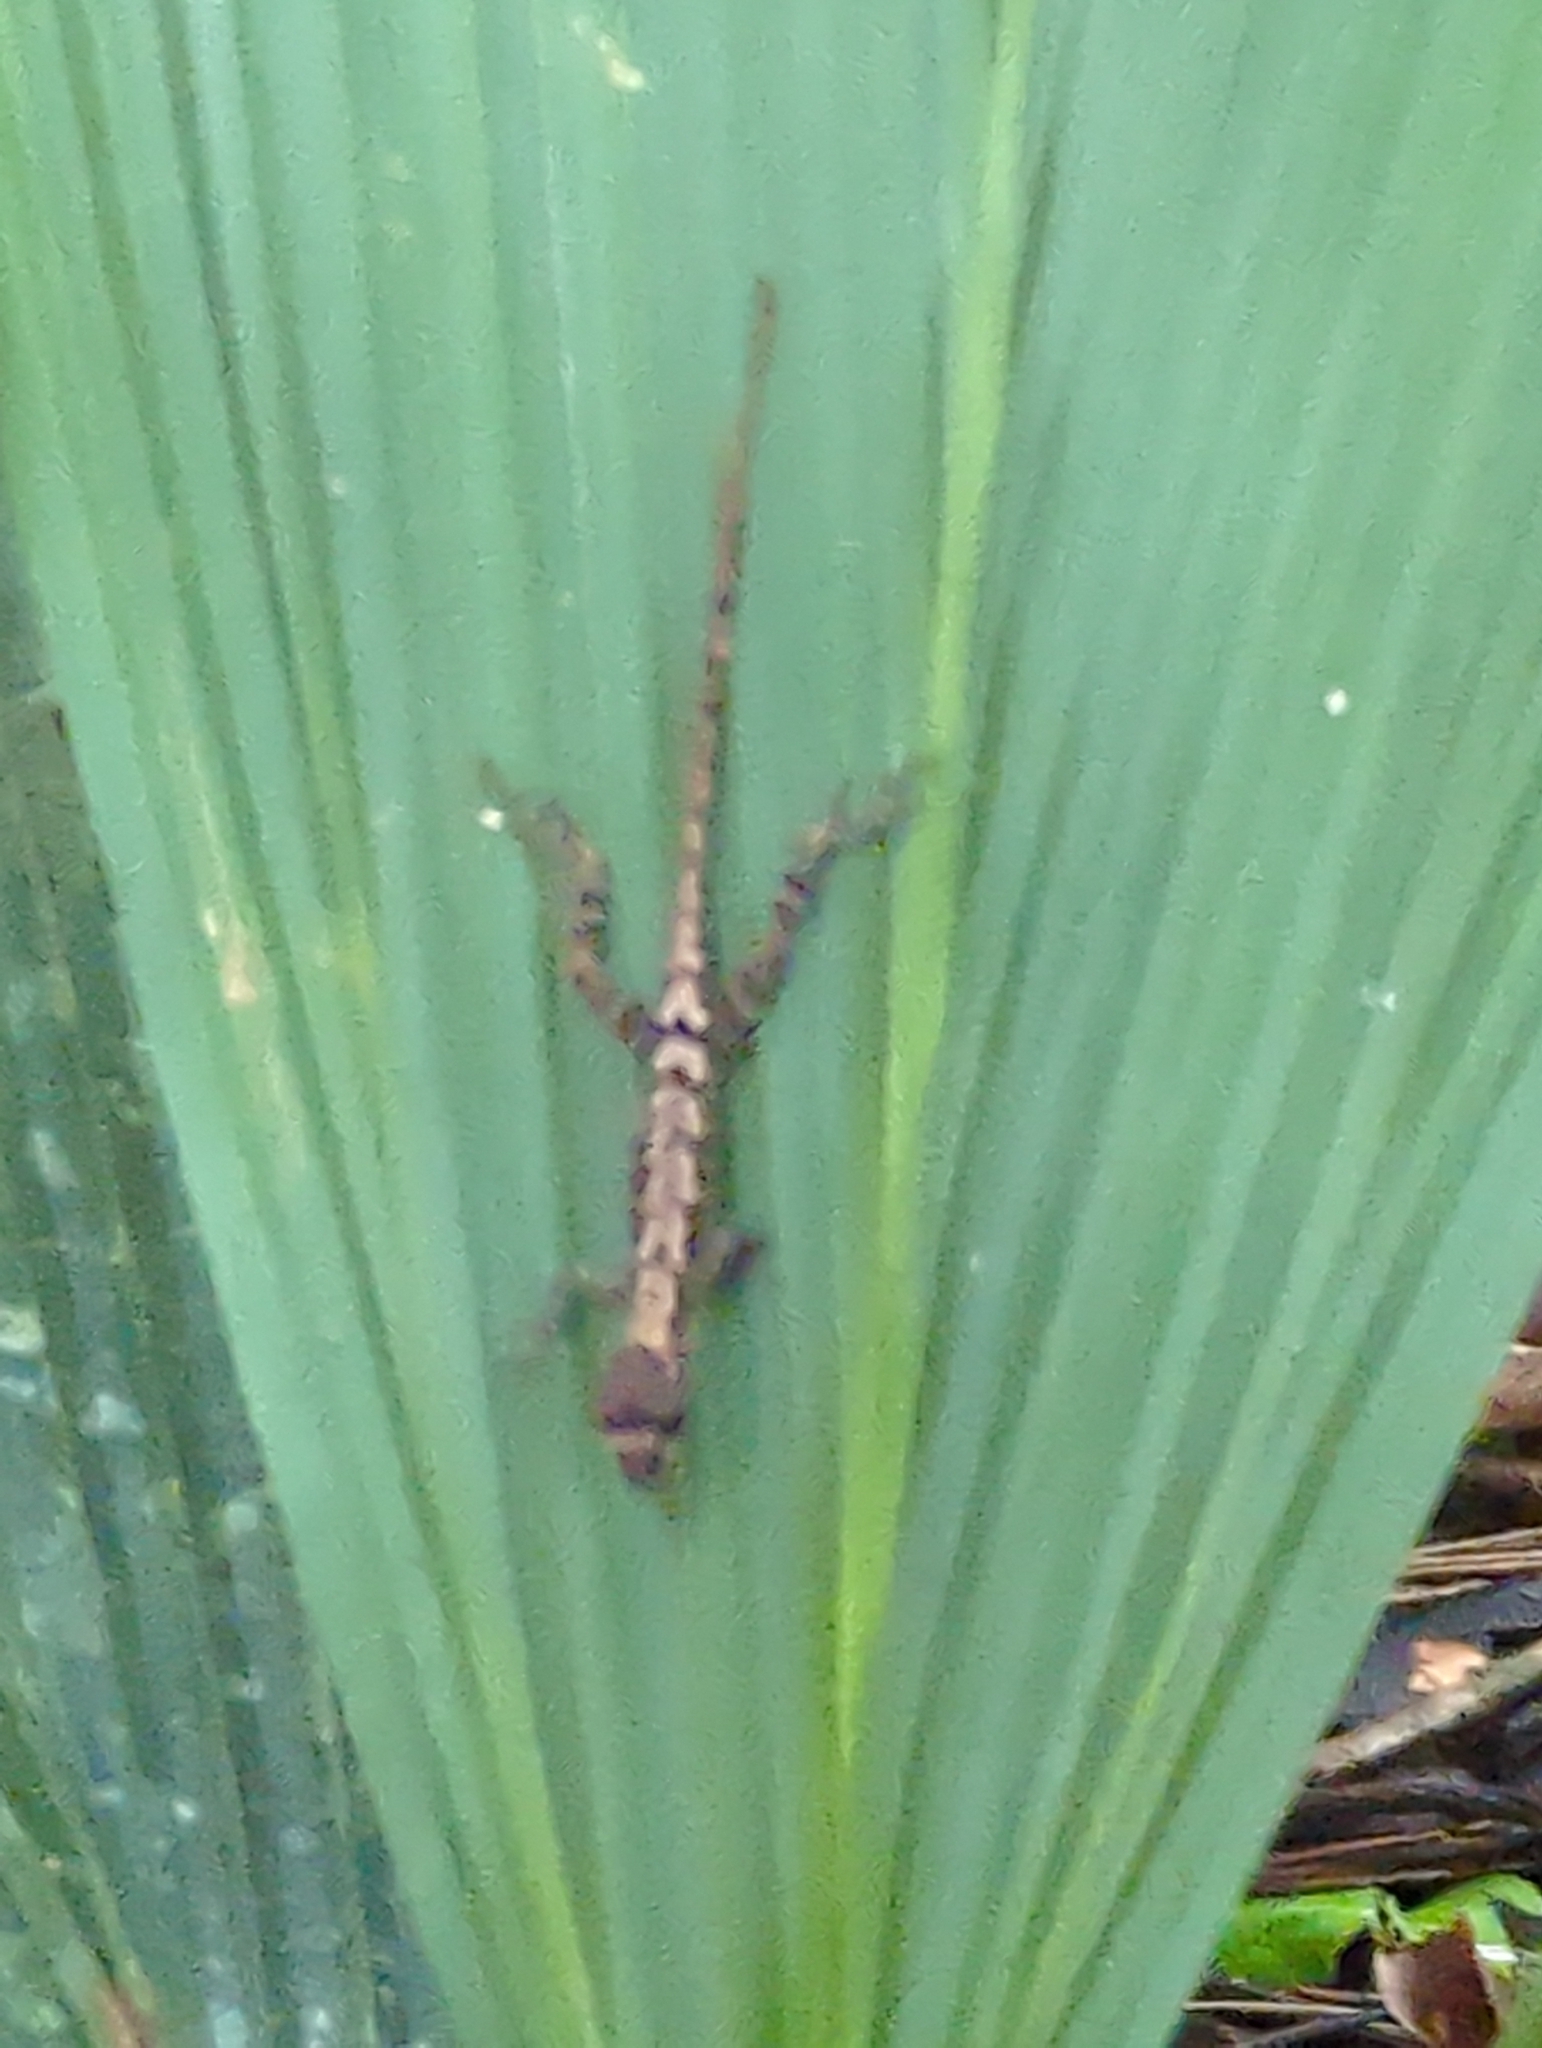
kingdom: Animalia
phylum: Chordata
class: Squamata
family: Dactyloidae
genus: Anolis
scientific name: Anolis humilis
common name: Humble anole
